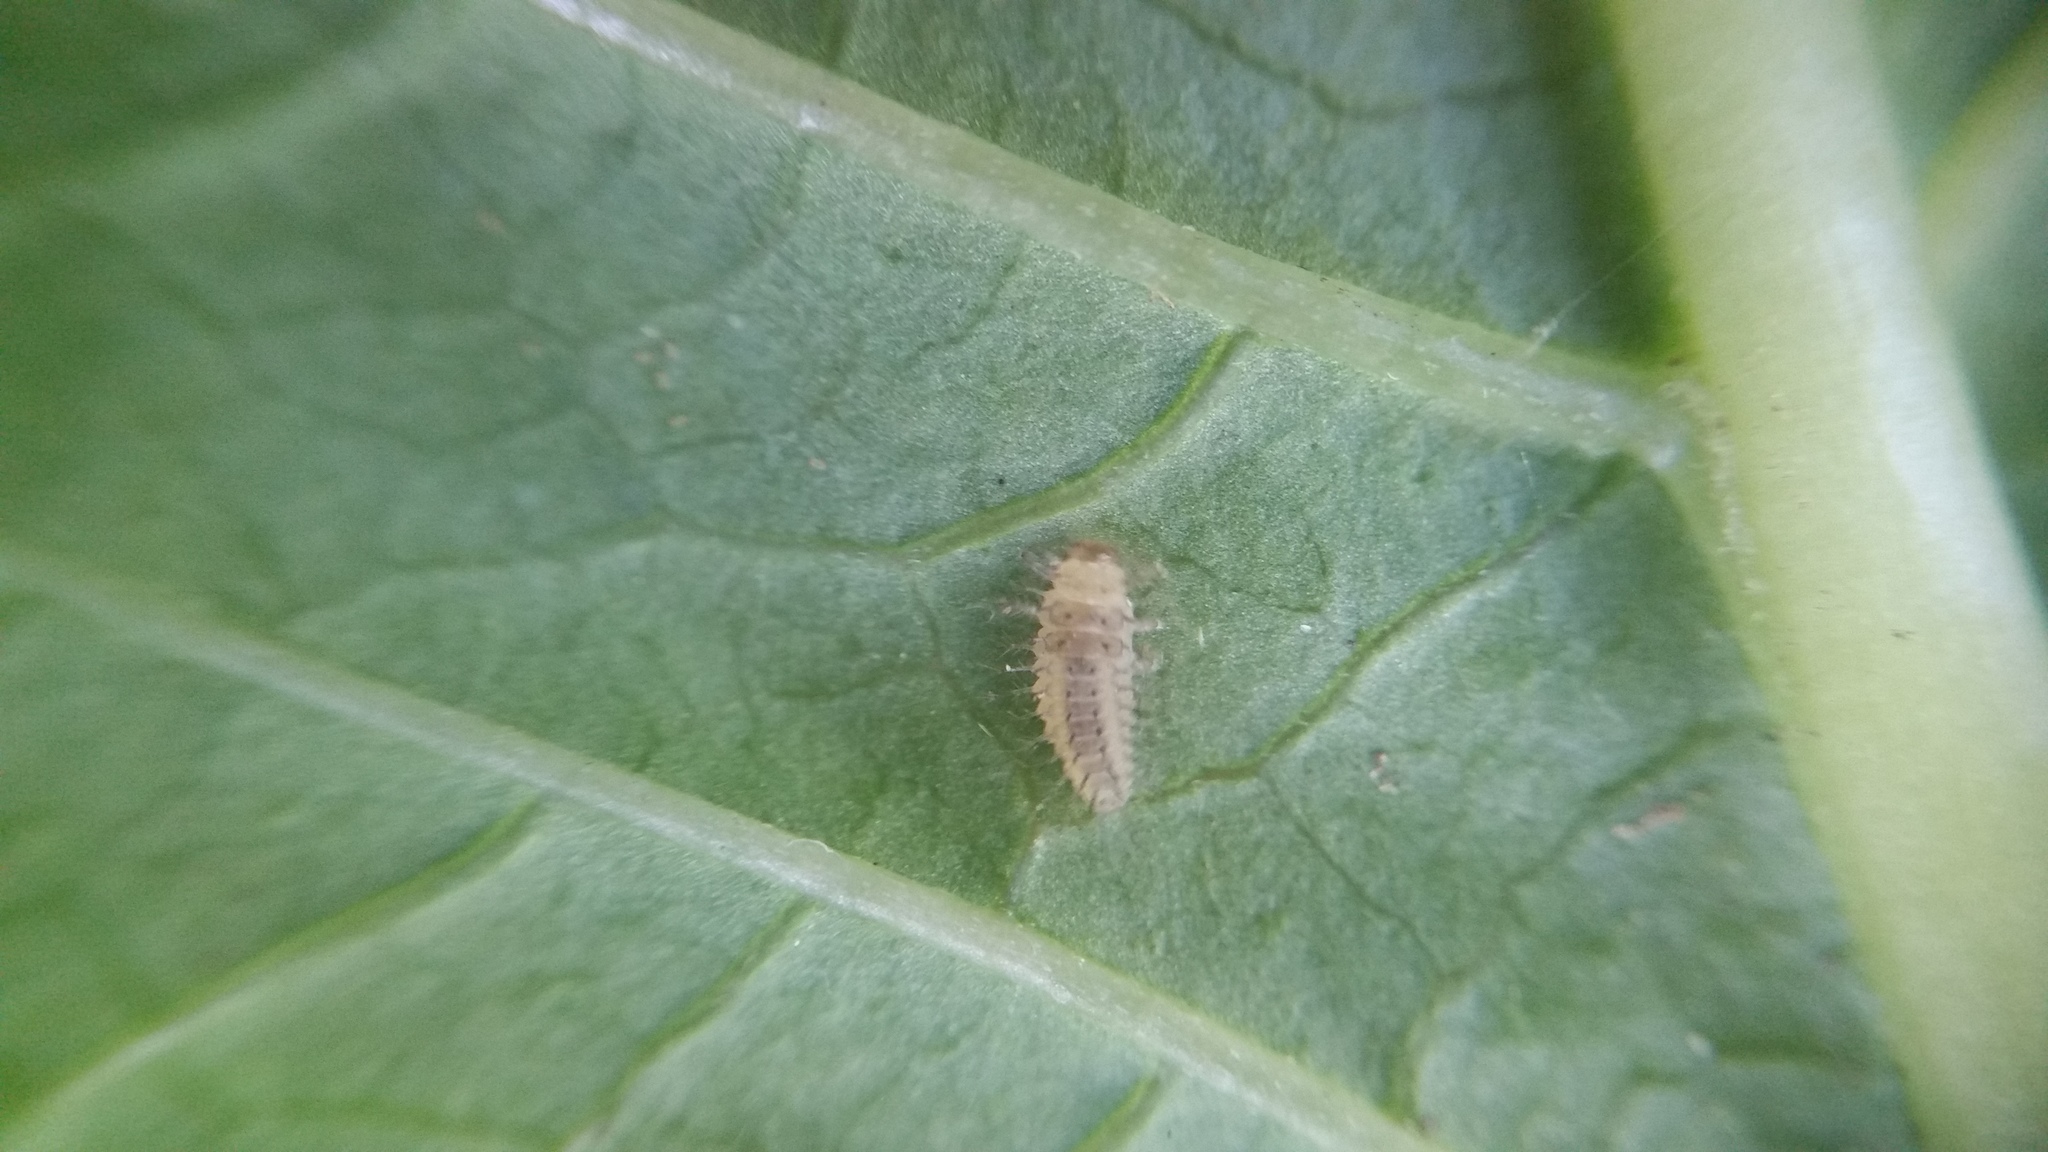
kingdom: Animalia
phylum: Arthropoda
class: Insecta
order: Coleoptera
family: Coccinellidae
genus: Halmus
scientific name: Halmus chalybeus
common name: Steel blue ladybird beetle
